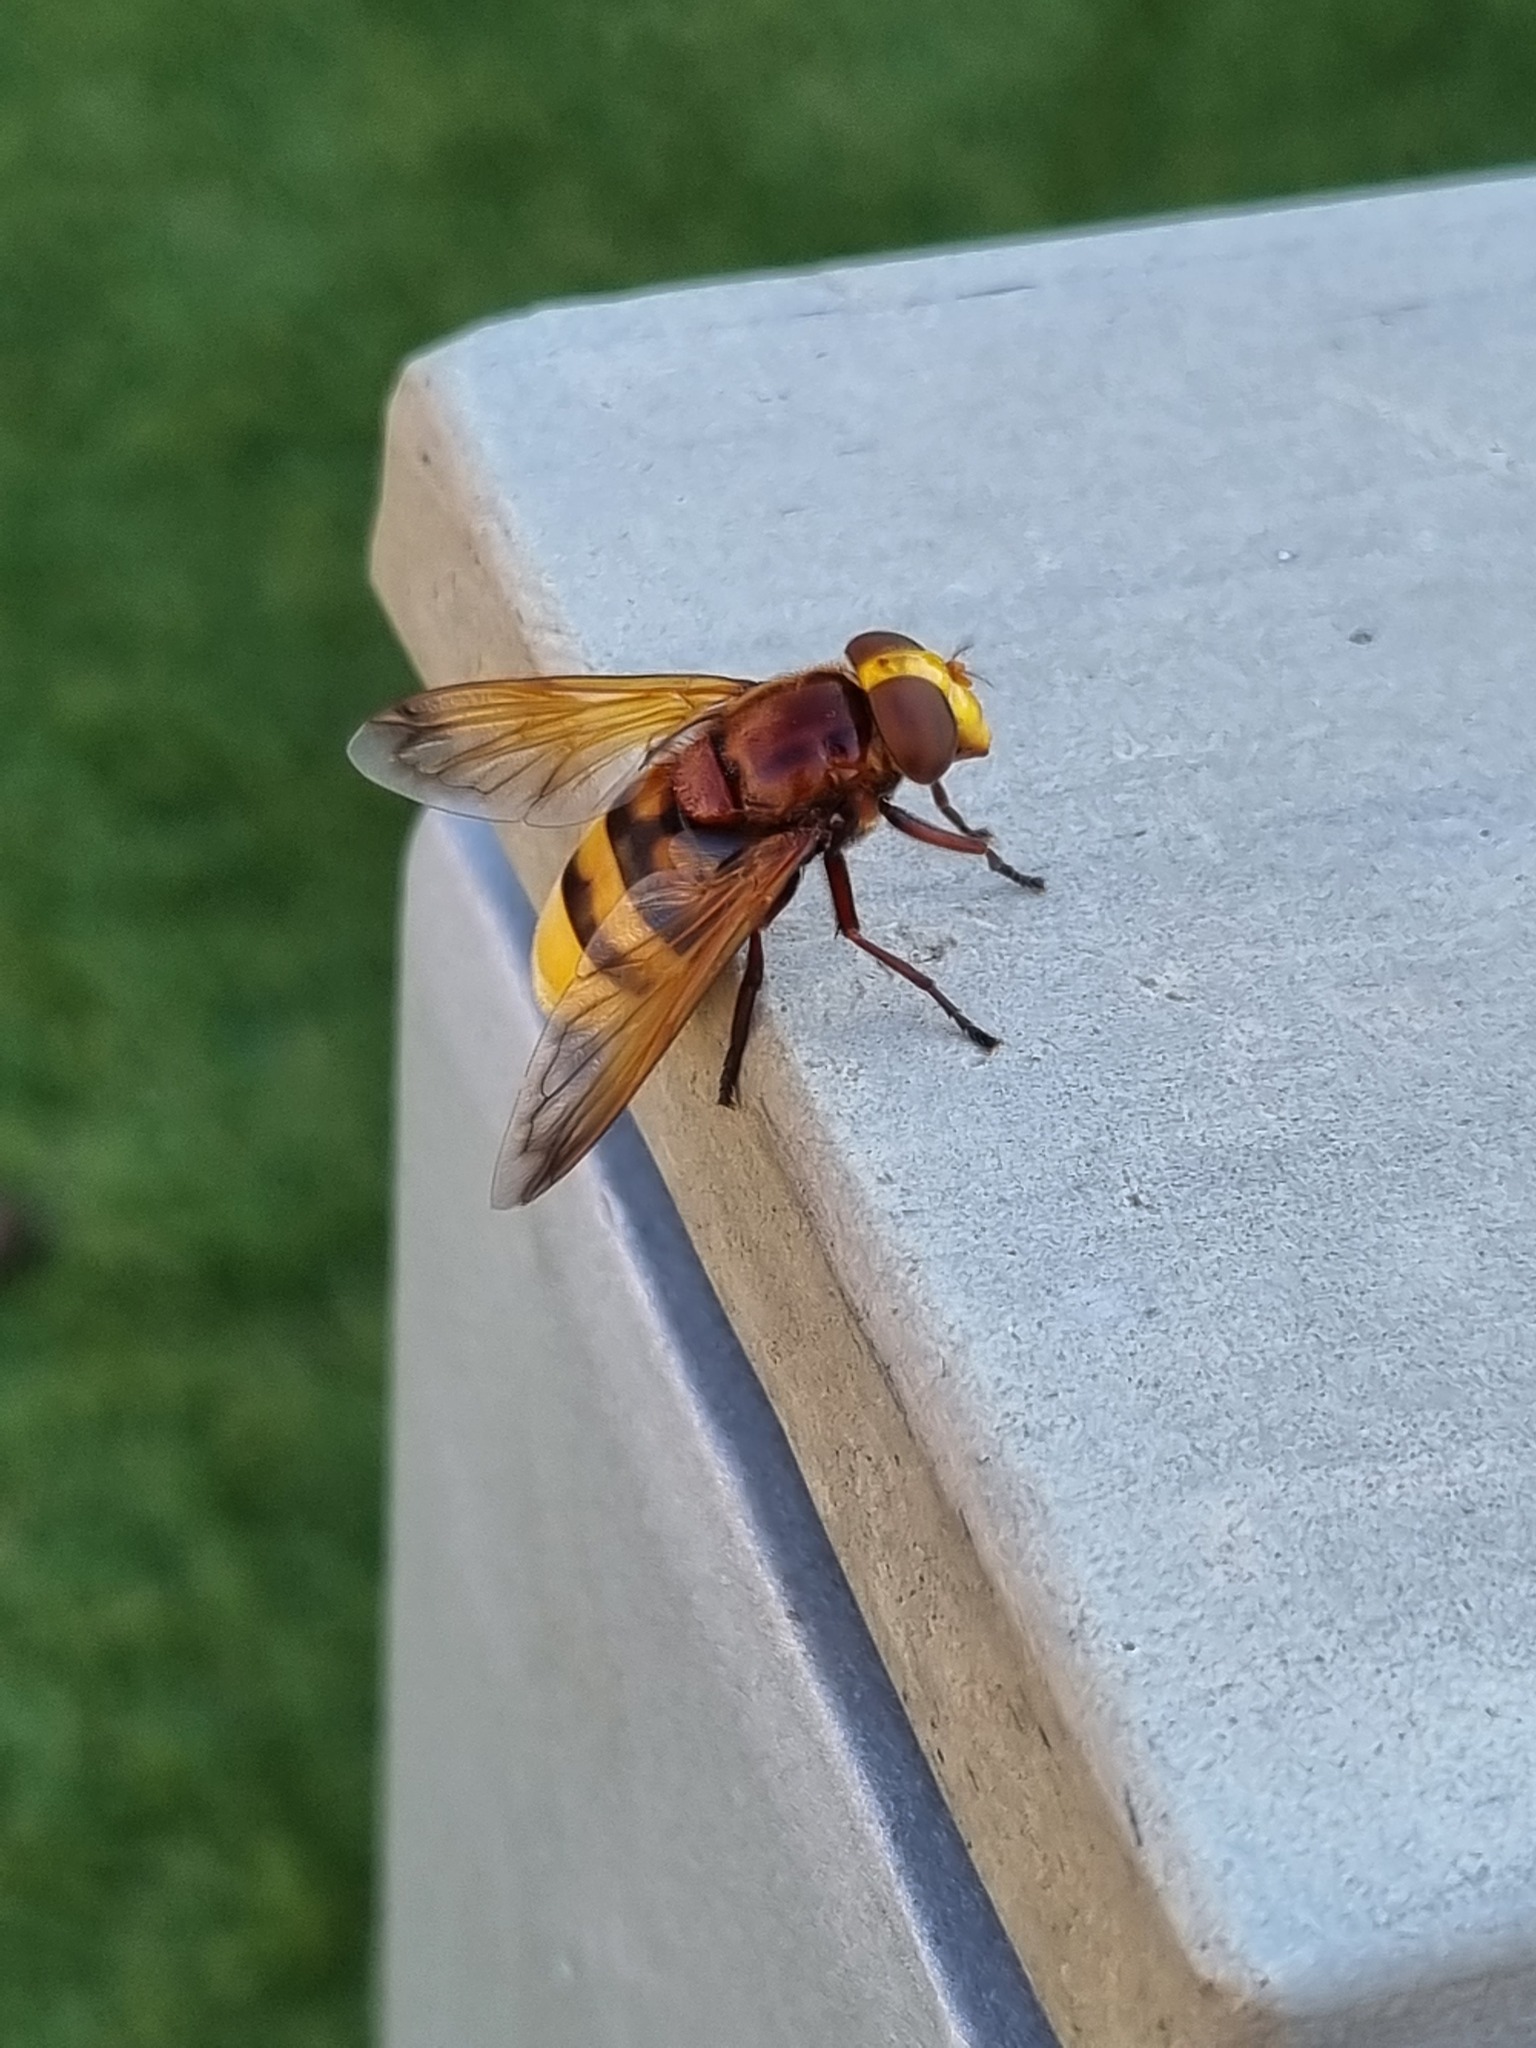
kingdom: Animalia
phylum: Arthropoda
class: Insecta
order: Diptera
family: Syrphidae
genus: Volucella
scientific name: Volucella zonaria
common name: Hornet hoverfly
